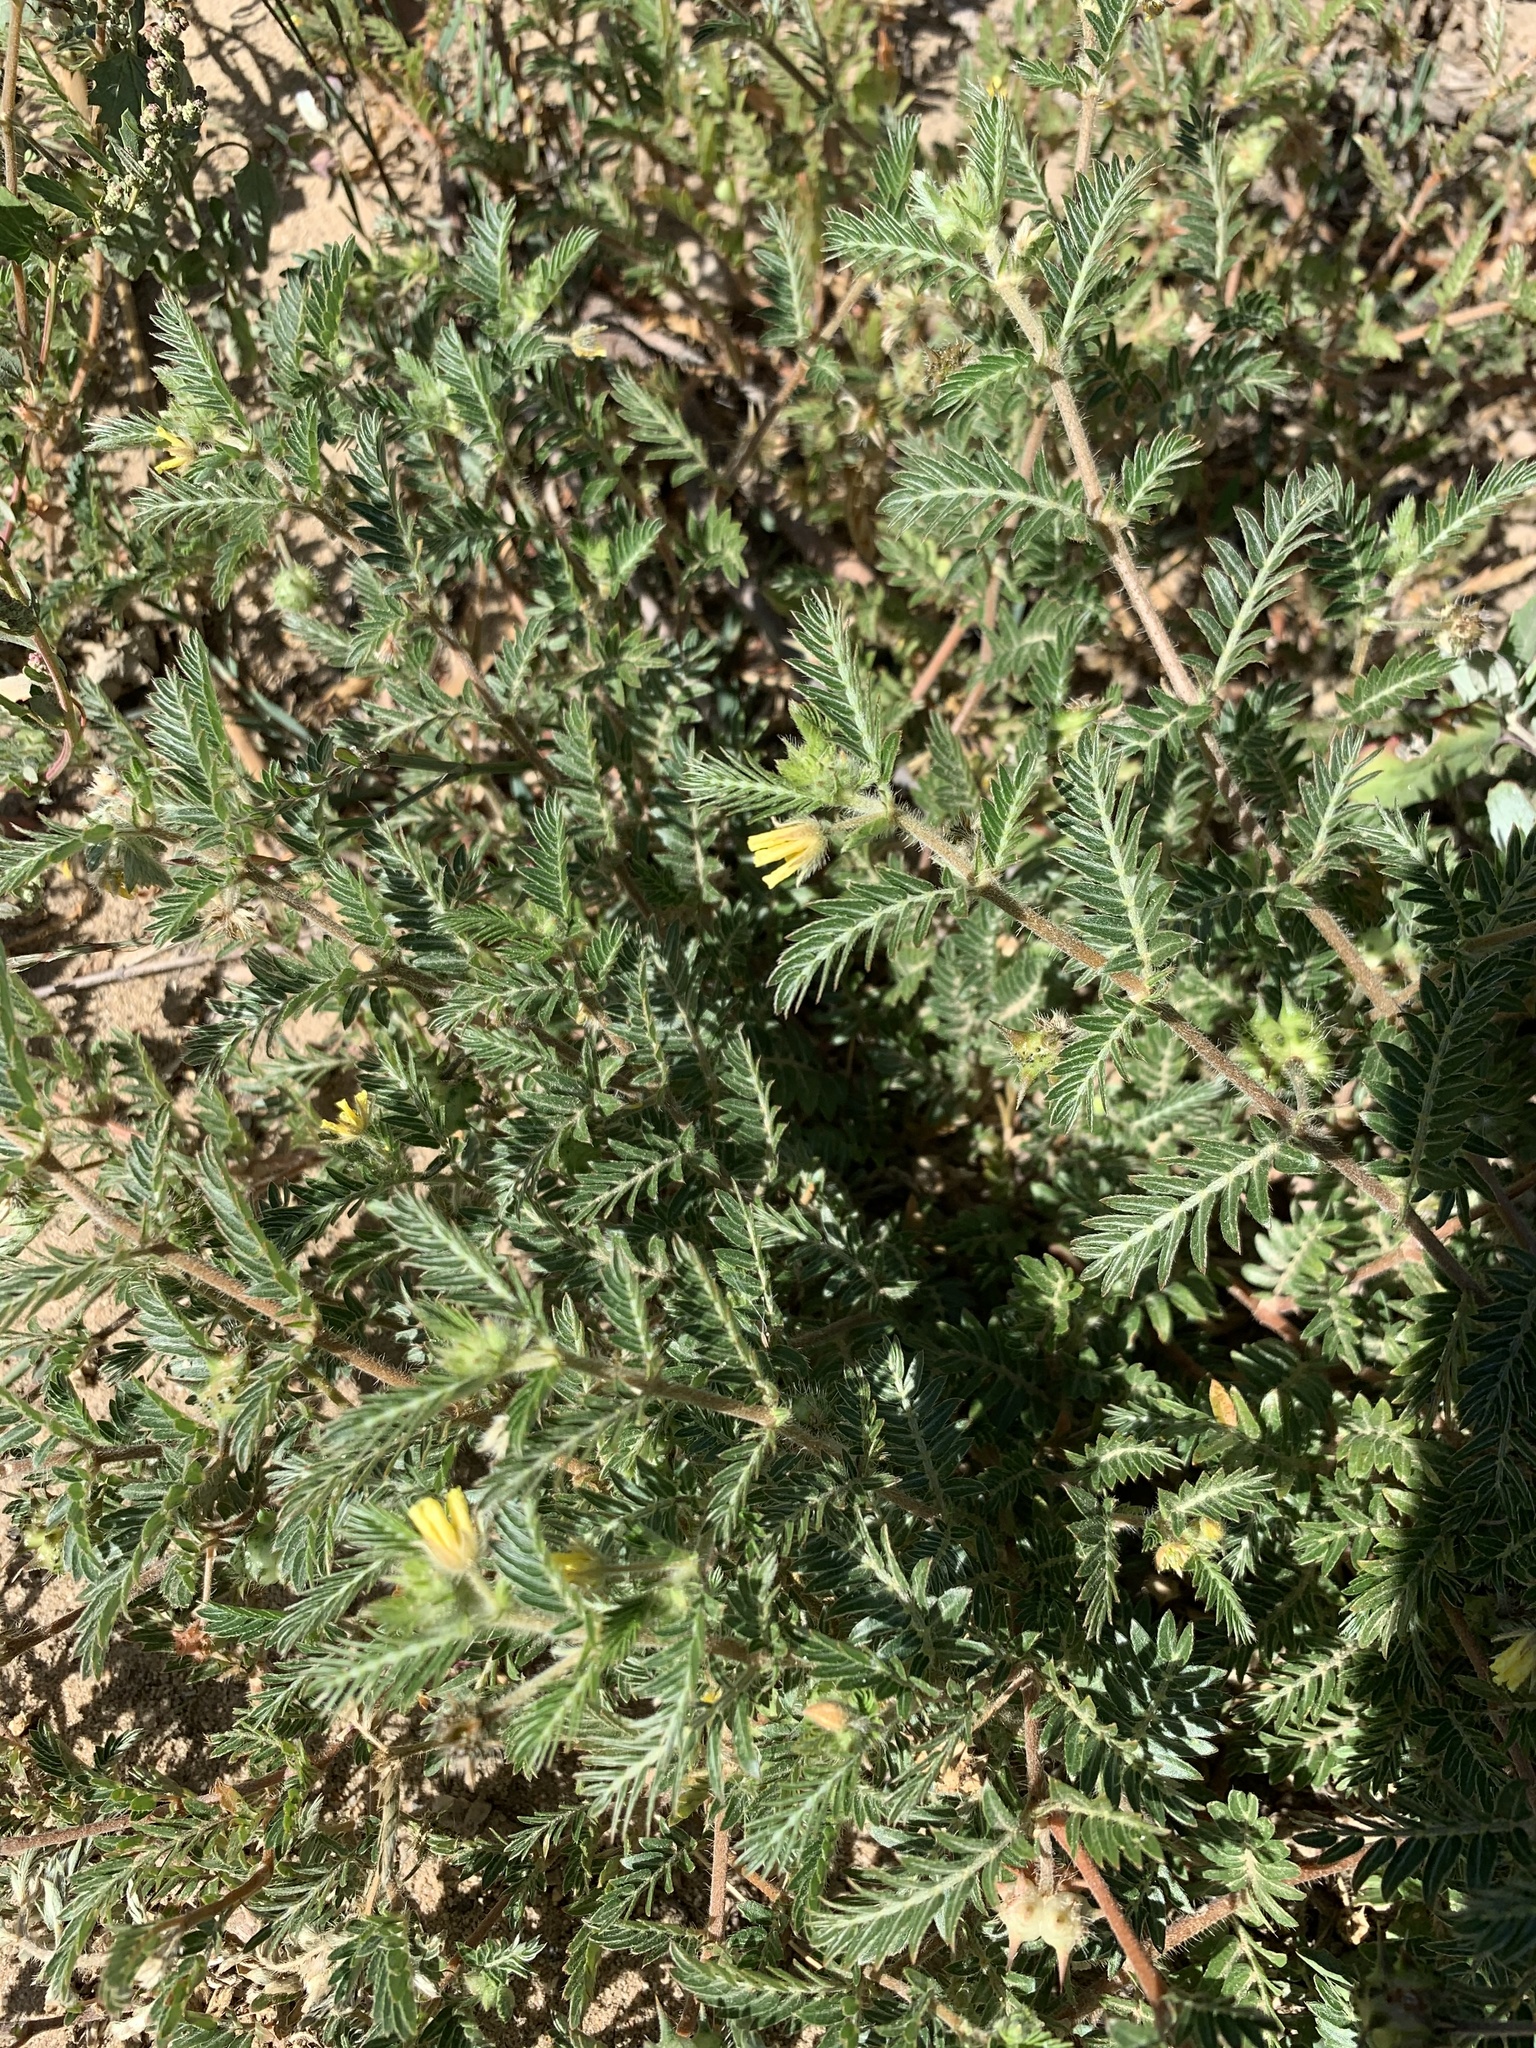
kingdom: Plantae
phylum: Tracheophyta
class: Magnoliopsida
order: Zygophyllales
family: Zygophyllaceae
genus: Tribulus
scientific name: Tribulus terrestris
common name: Puncturevine
